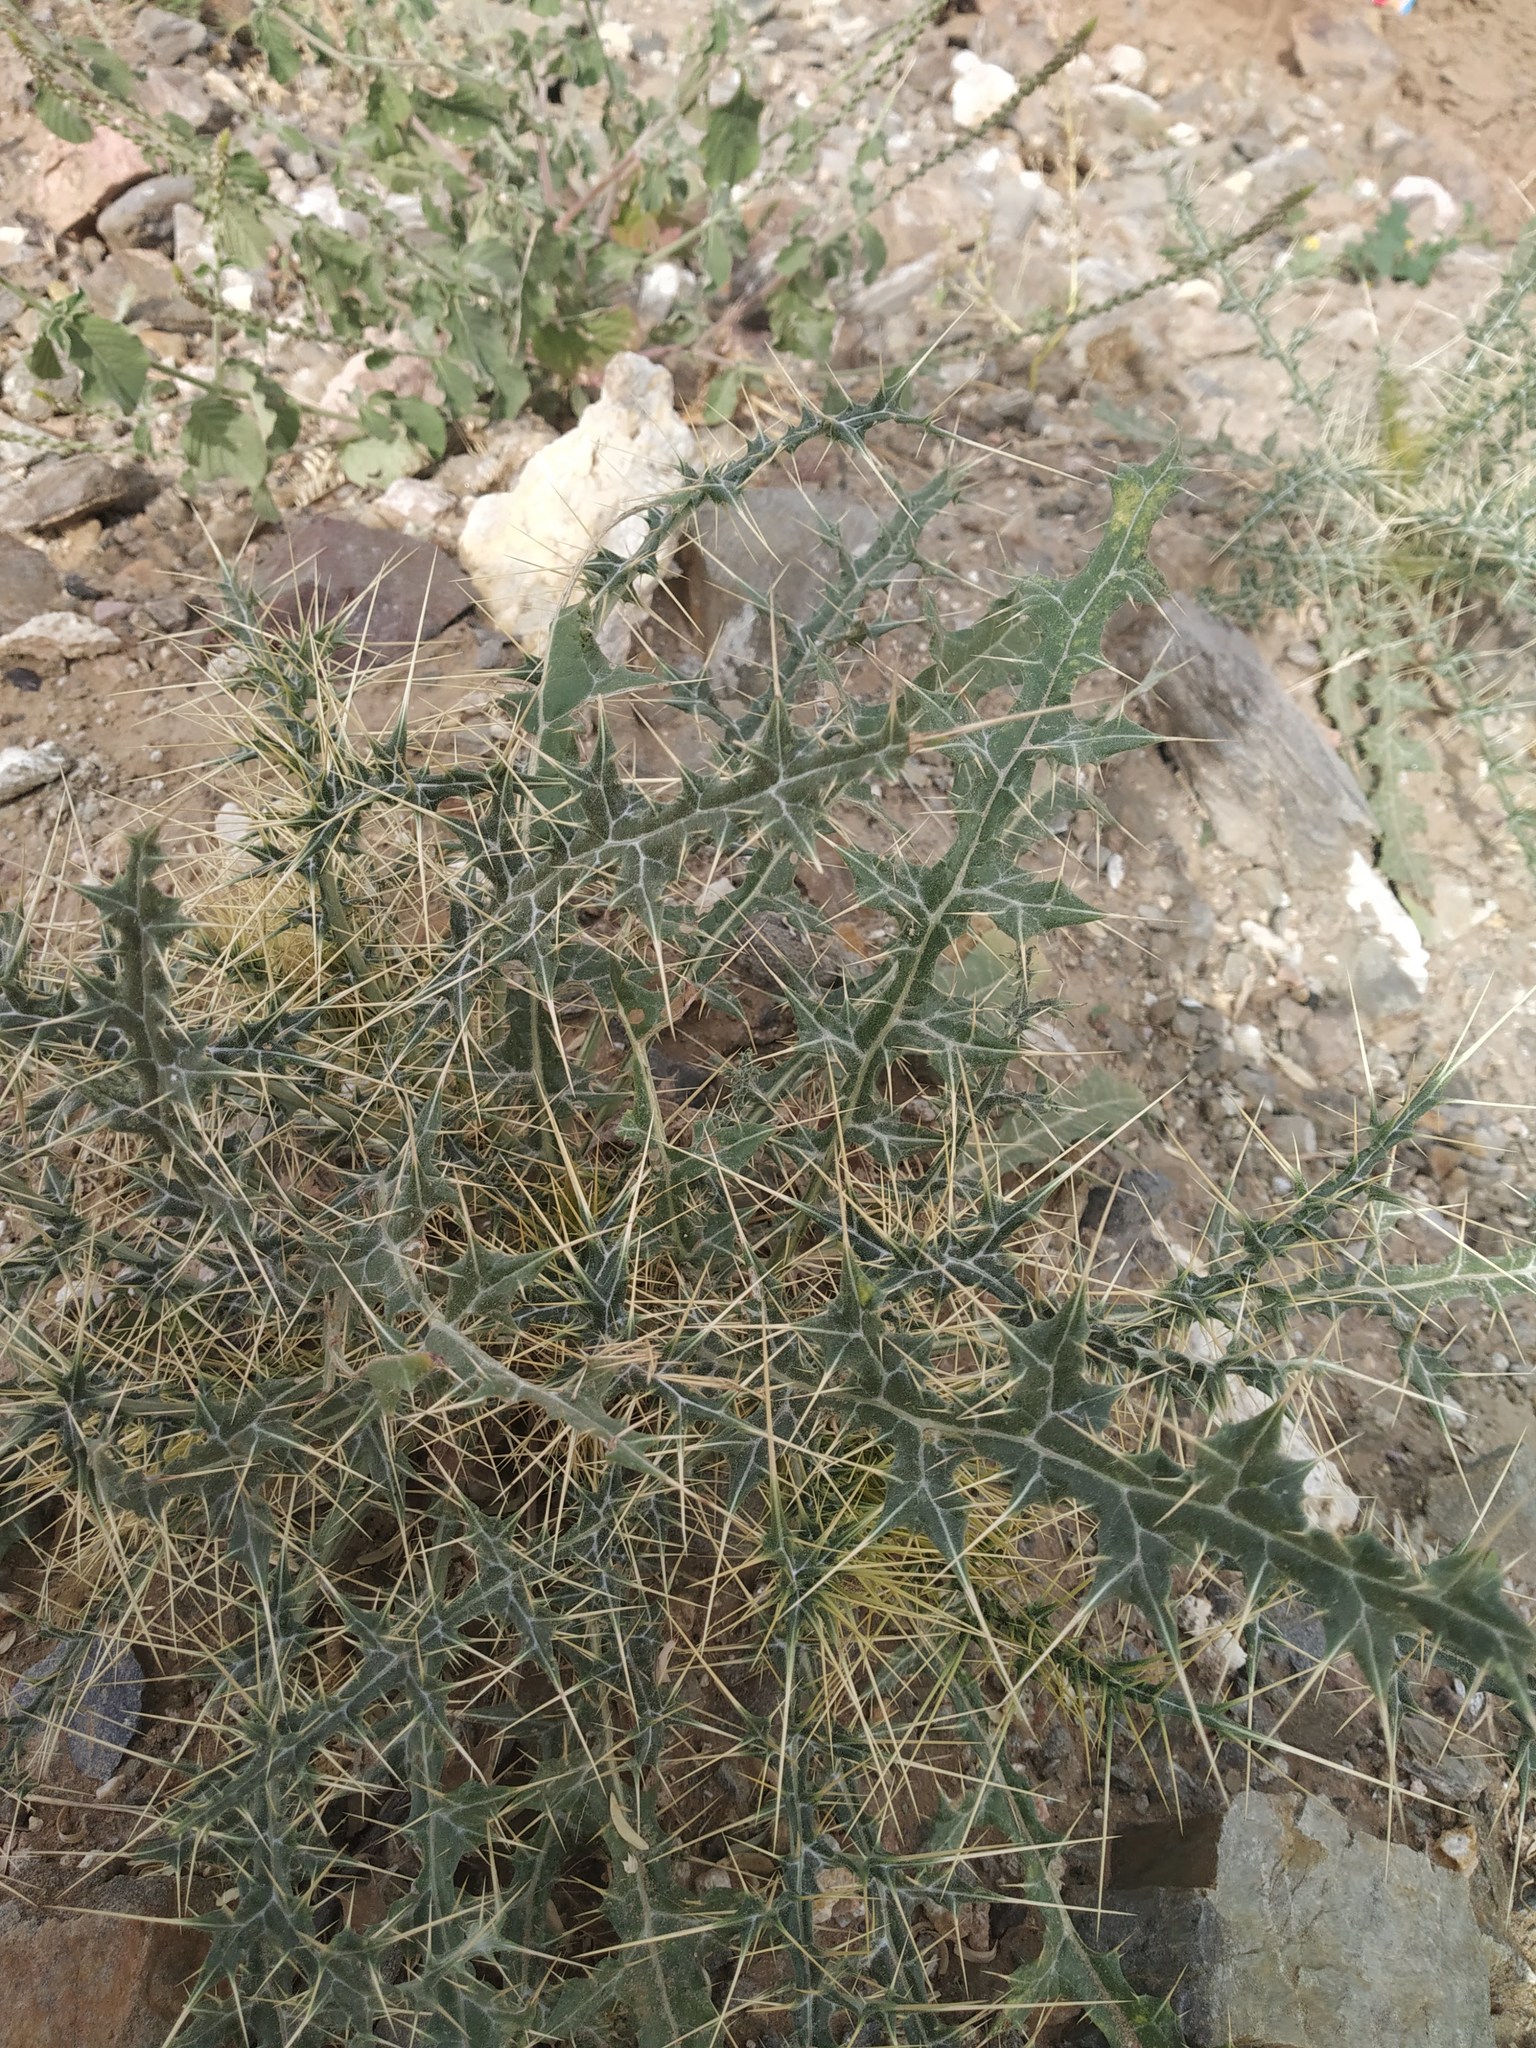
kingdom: Plantae
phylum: Tracheophyta
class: Magnoliopsida
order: Asterales
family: Asteraceae
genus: Echinops
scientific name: Echinops echinatus
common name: Indian globe thistle
